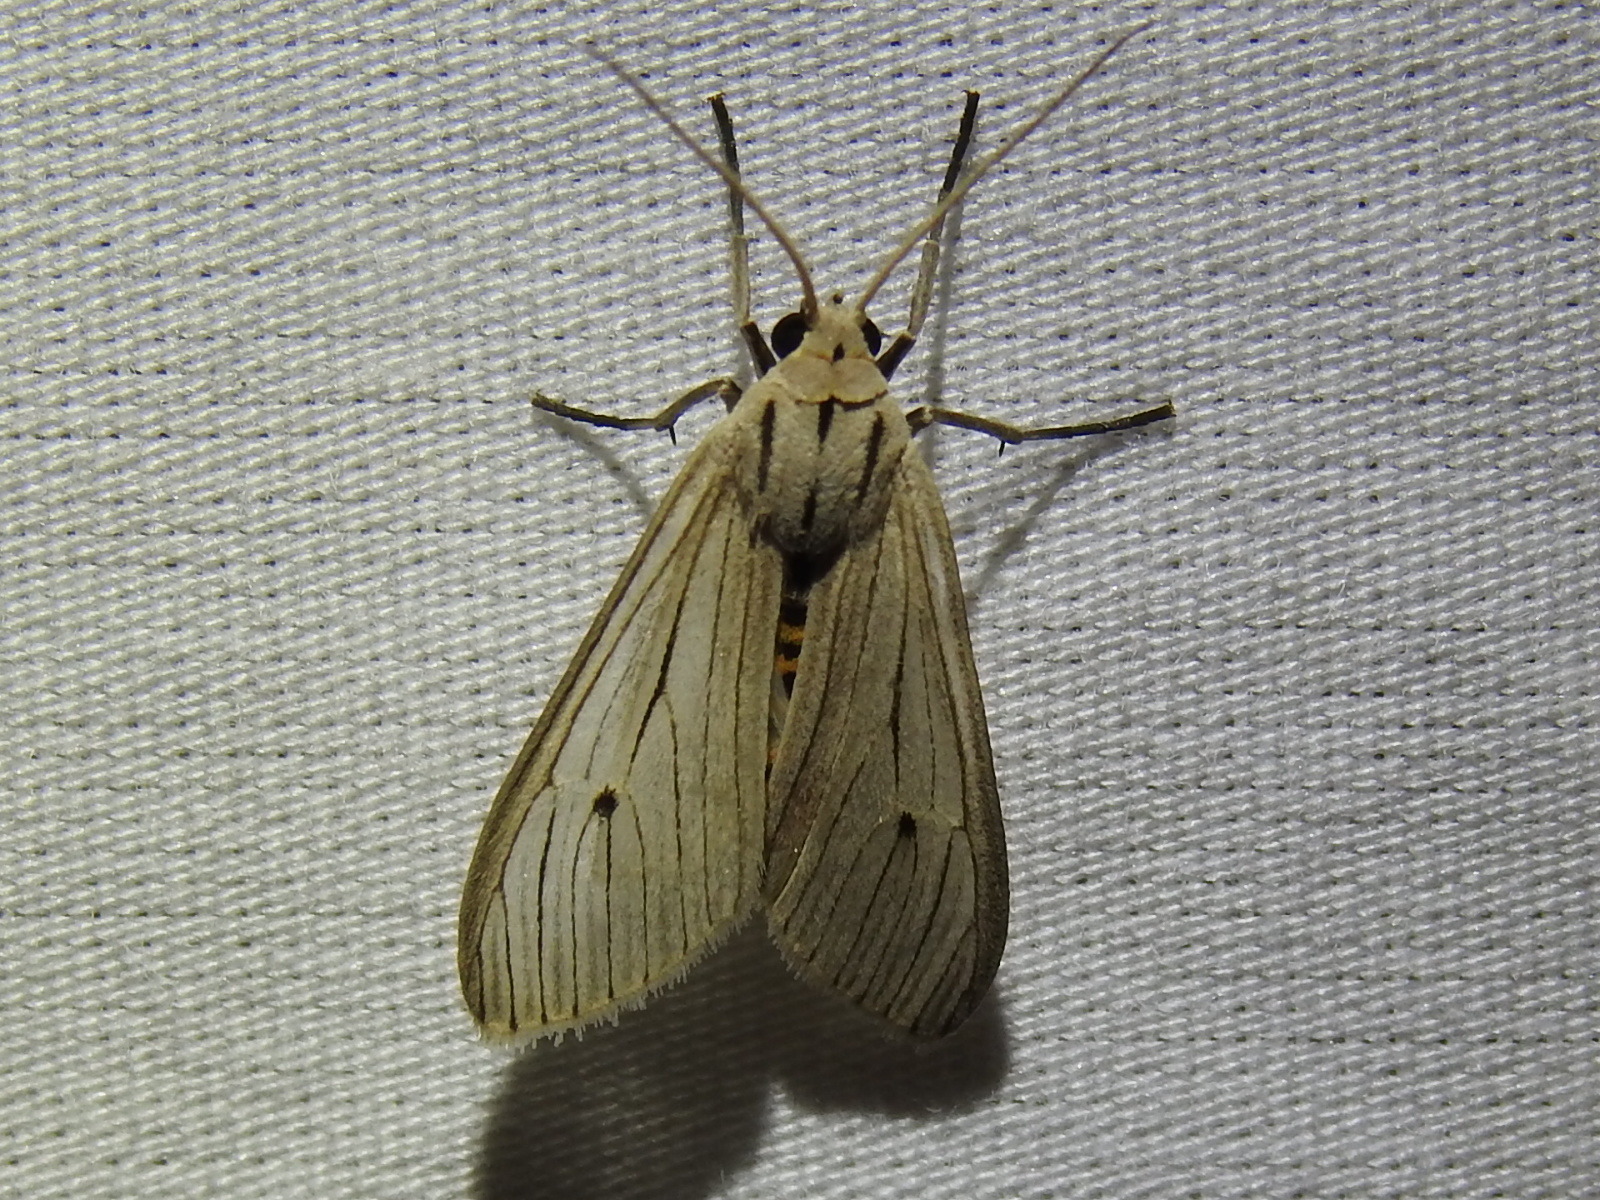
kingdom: Animalia
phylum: Arthropoda
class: Insecta
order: Lepidoptera
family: Erebidae
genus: Arctagyrta
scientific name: Arctagyrta Agaraea semivitrea
